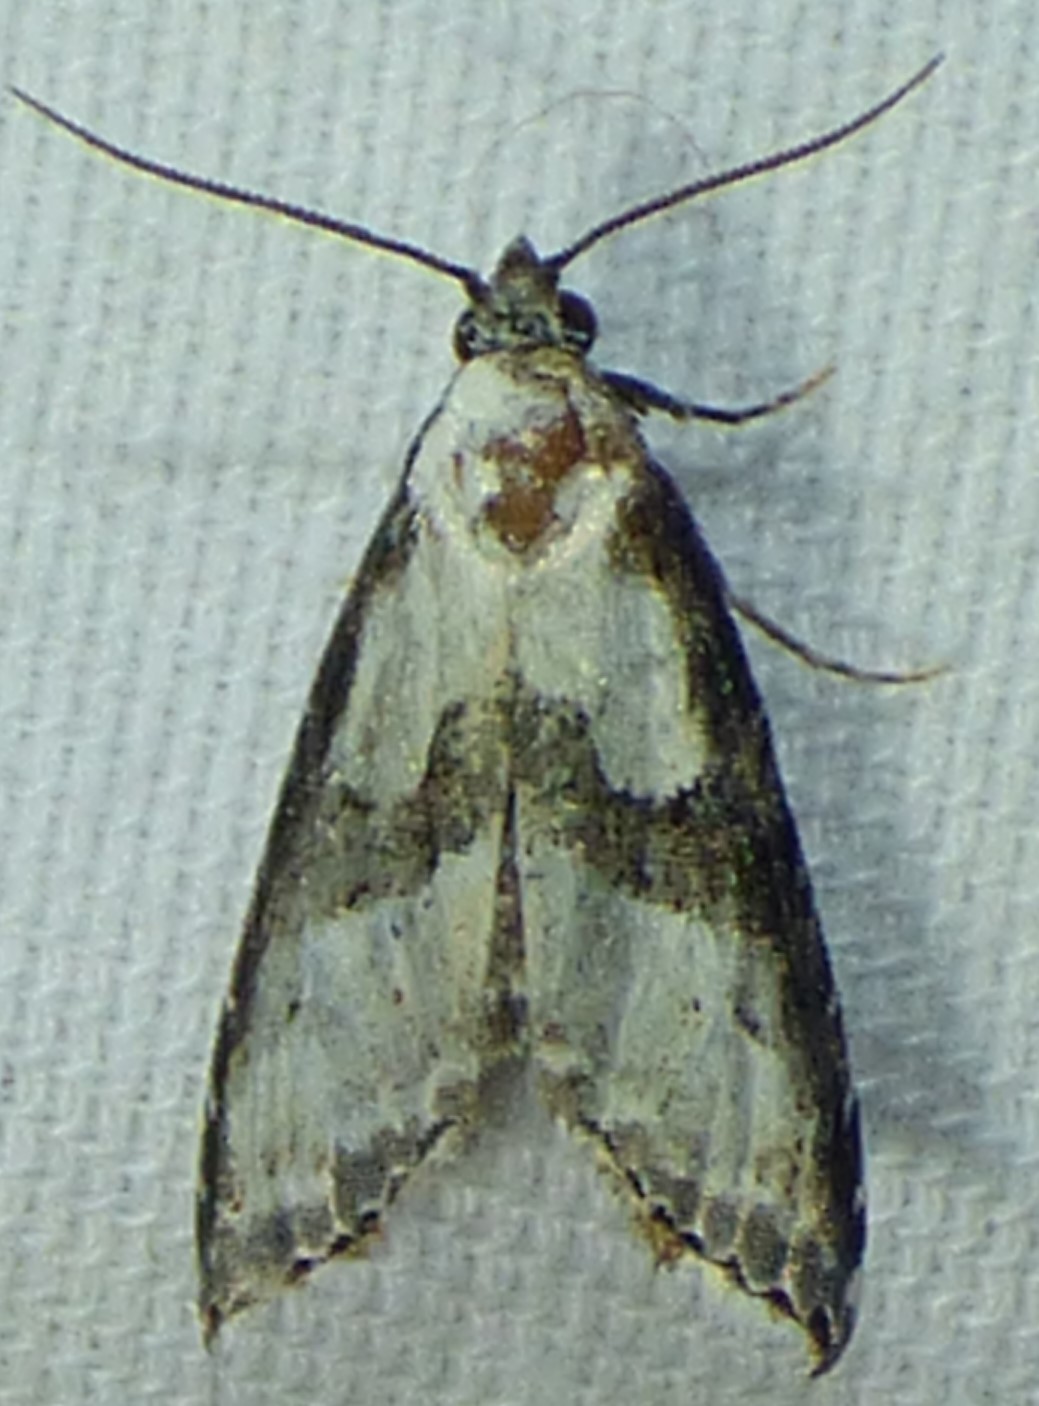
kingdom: Animalia
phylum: Arthropoda
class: Insecta
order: Lepidoptera
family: Noctuidae
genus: Nigetia
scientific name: Nigetia formosalis
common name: Thin-winged owlet
